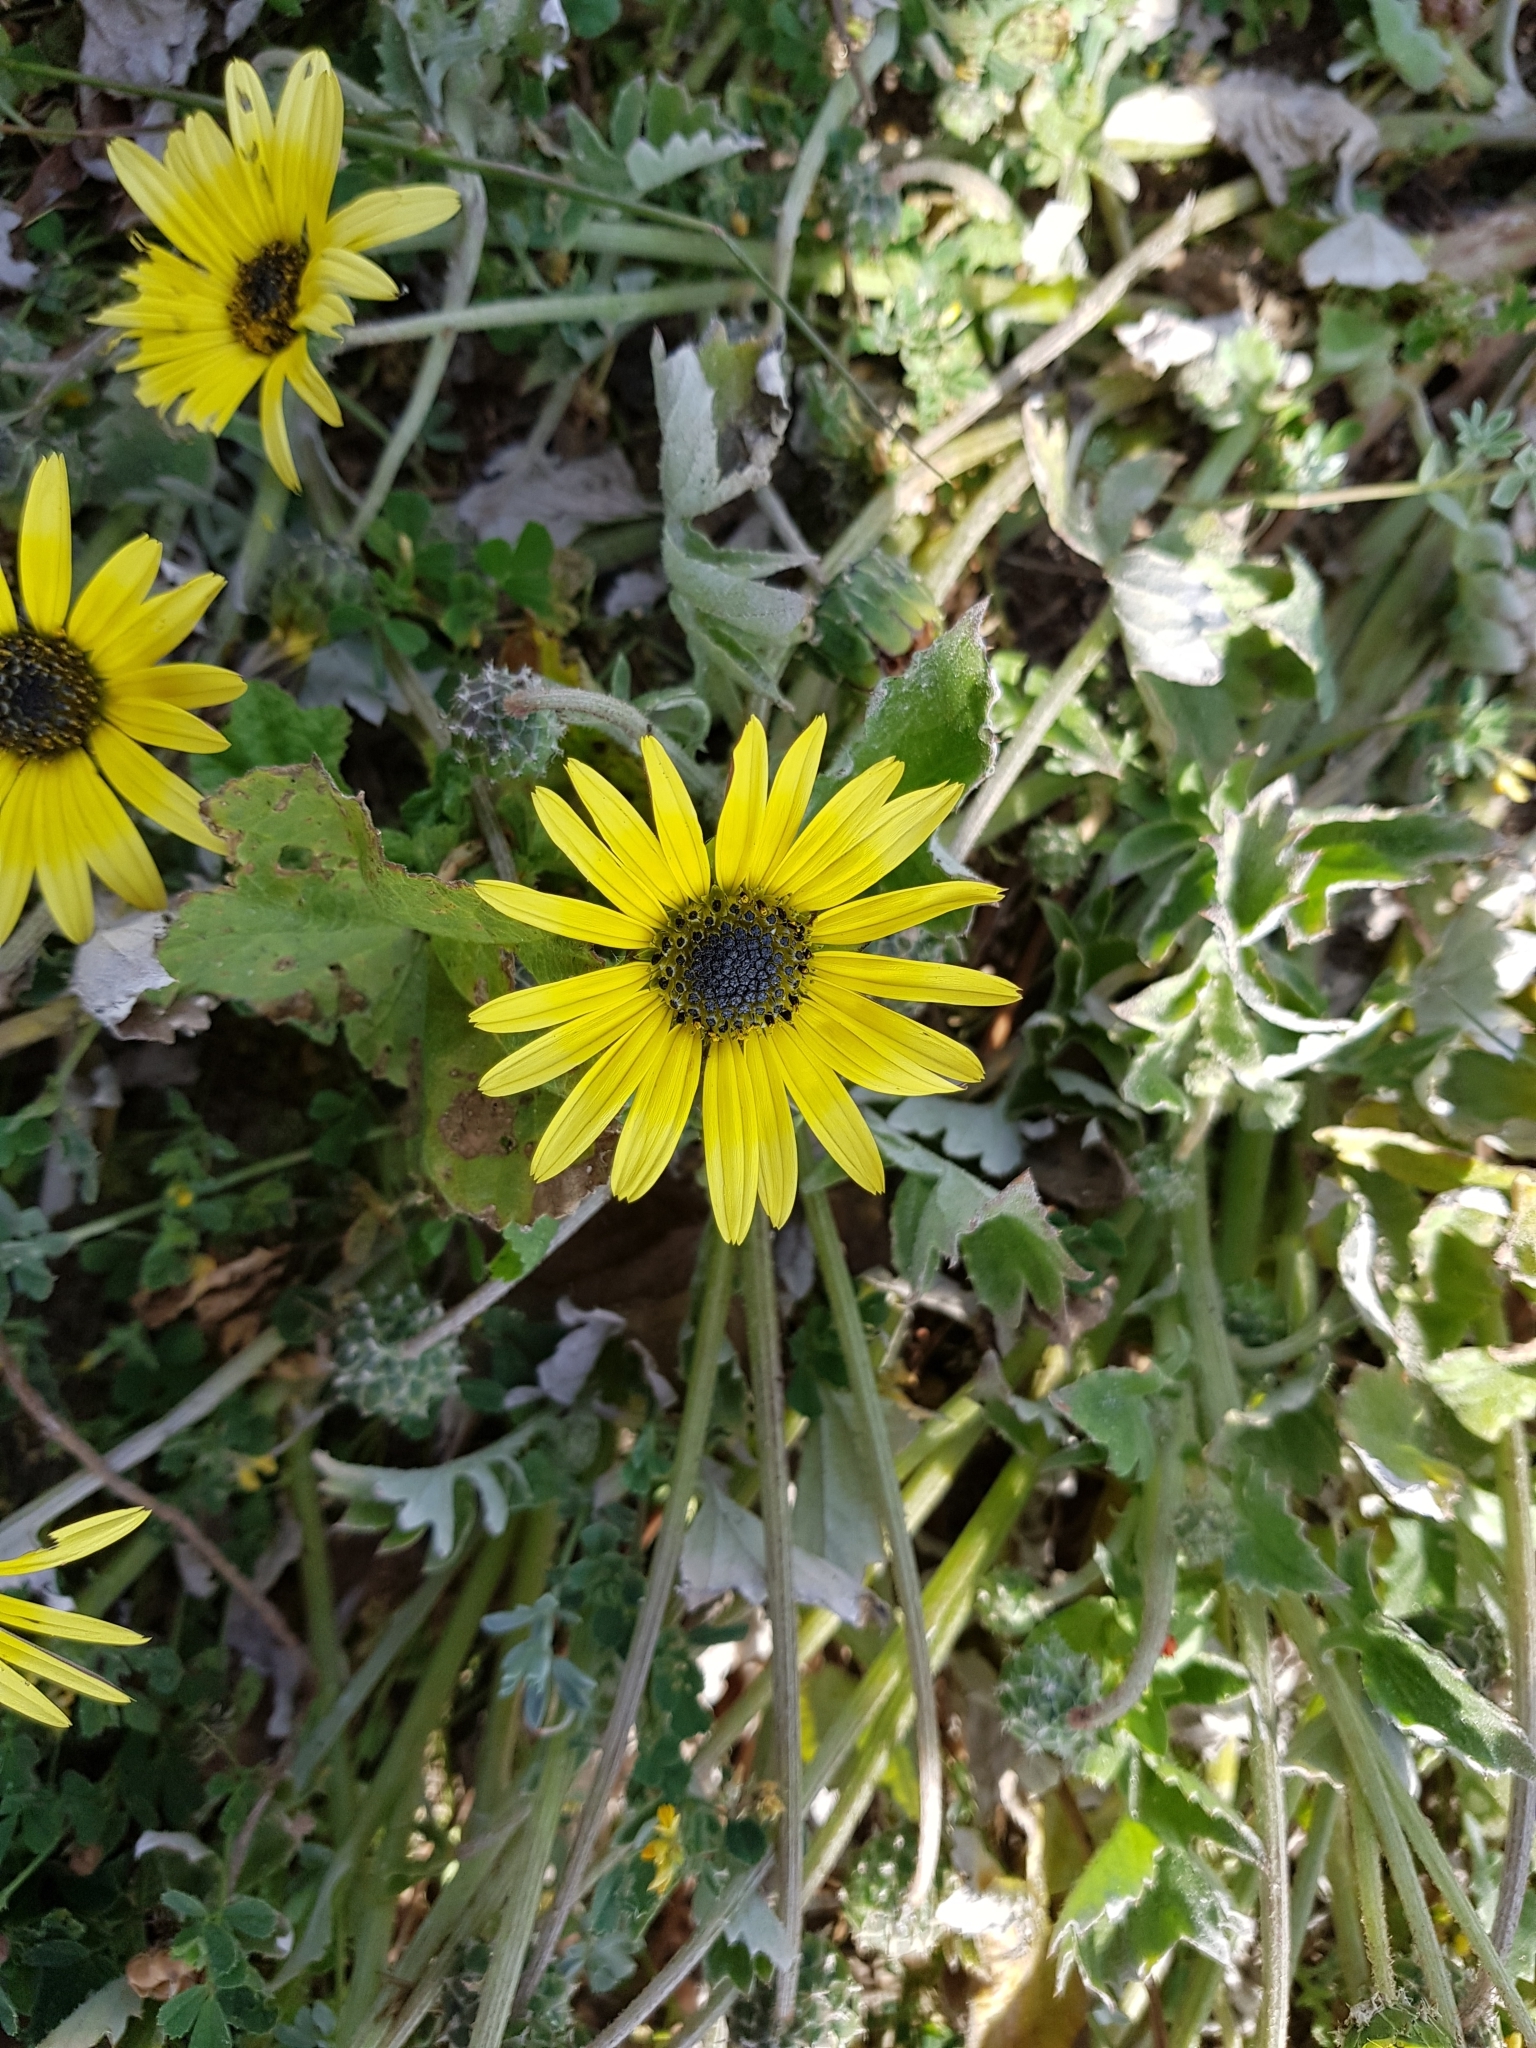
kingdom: Plantae
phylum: Tracheophyta
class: Magnoliopsida
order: Asterales
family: Asteraceae
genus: Arctotheca
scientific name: Arctotheca calendula
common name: Capeweed
